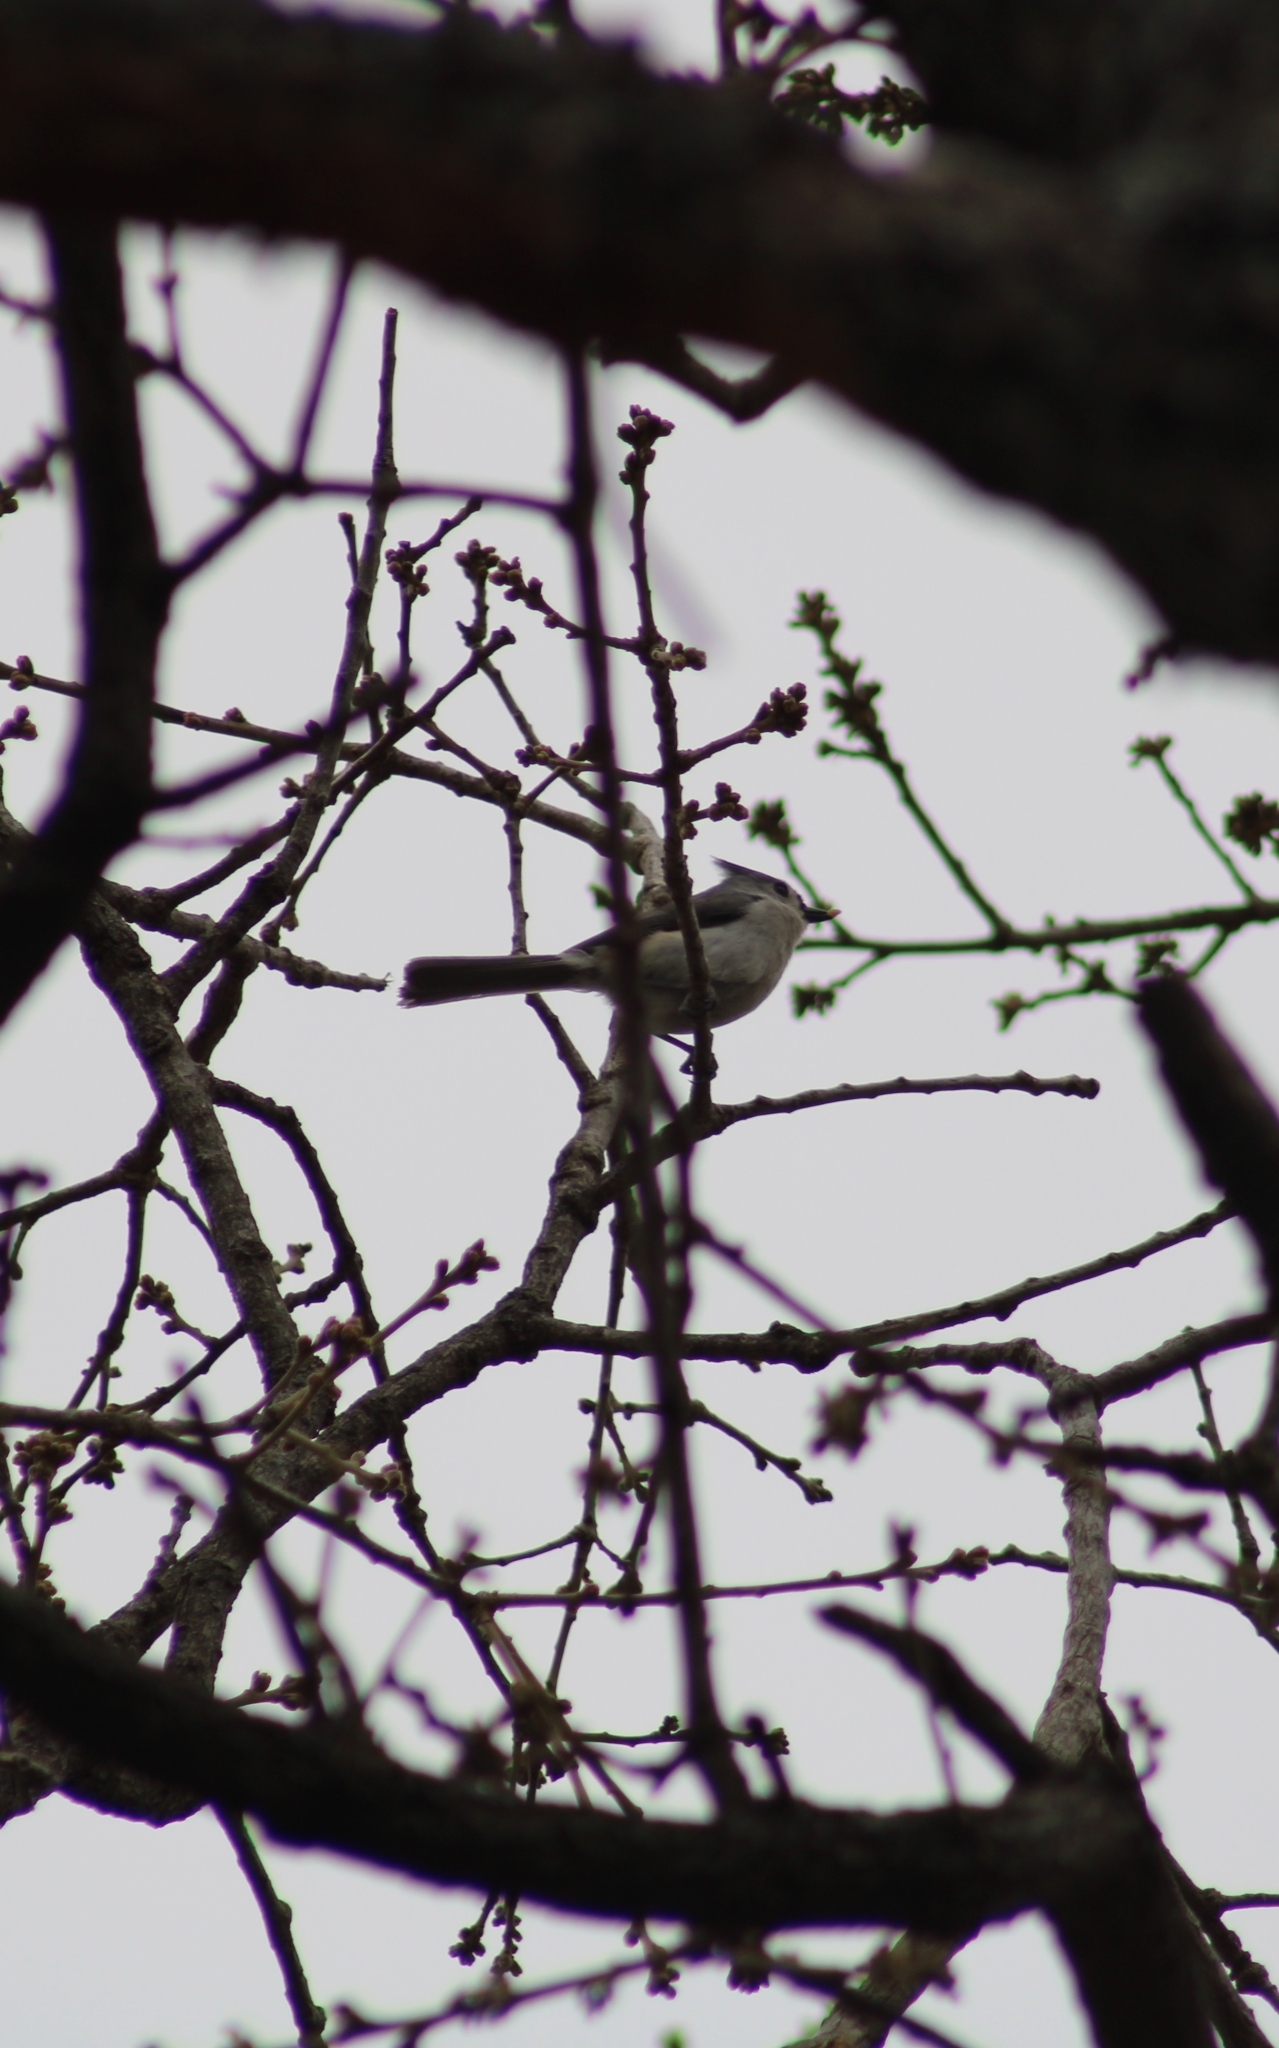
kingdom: Animalia
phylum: Chordata
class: Aves
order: Passeriformes
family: Paridae
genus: Baeolophus
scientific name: Baeolophus bicolor
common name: Tufted titmouse
